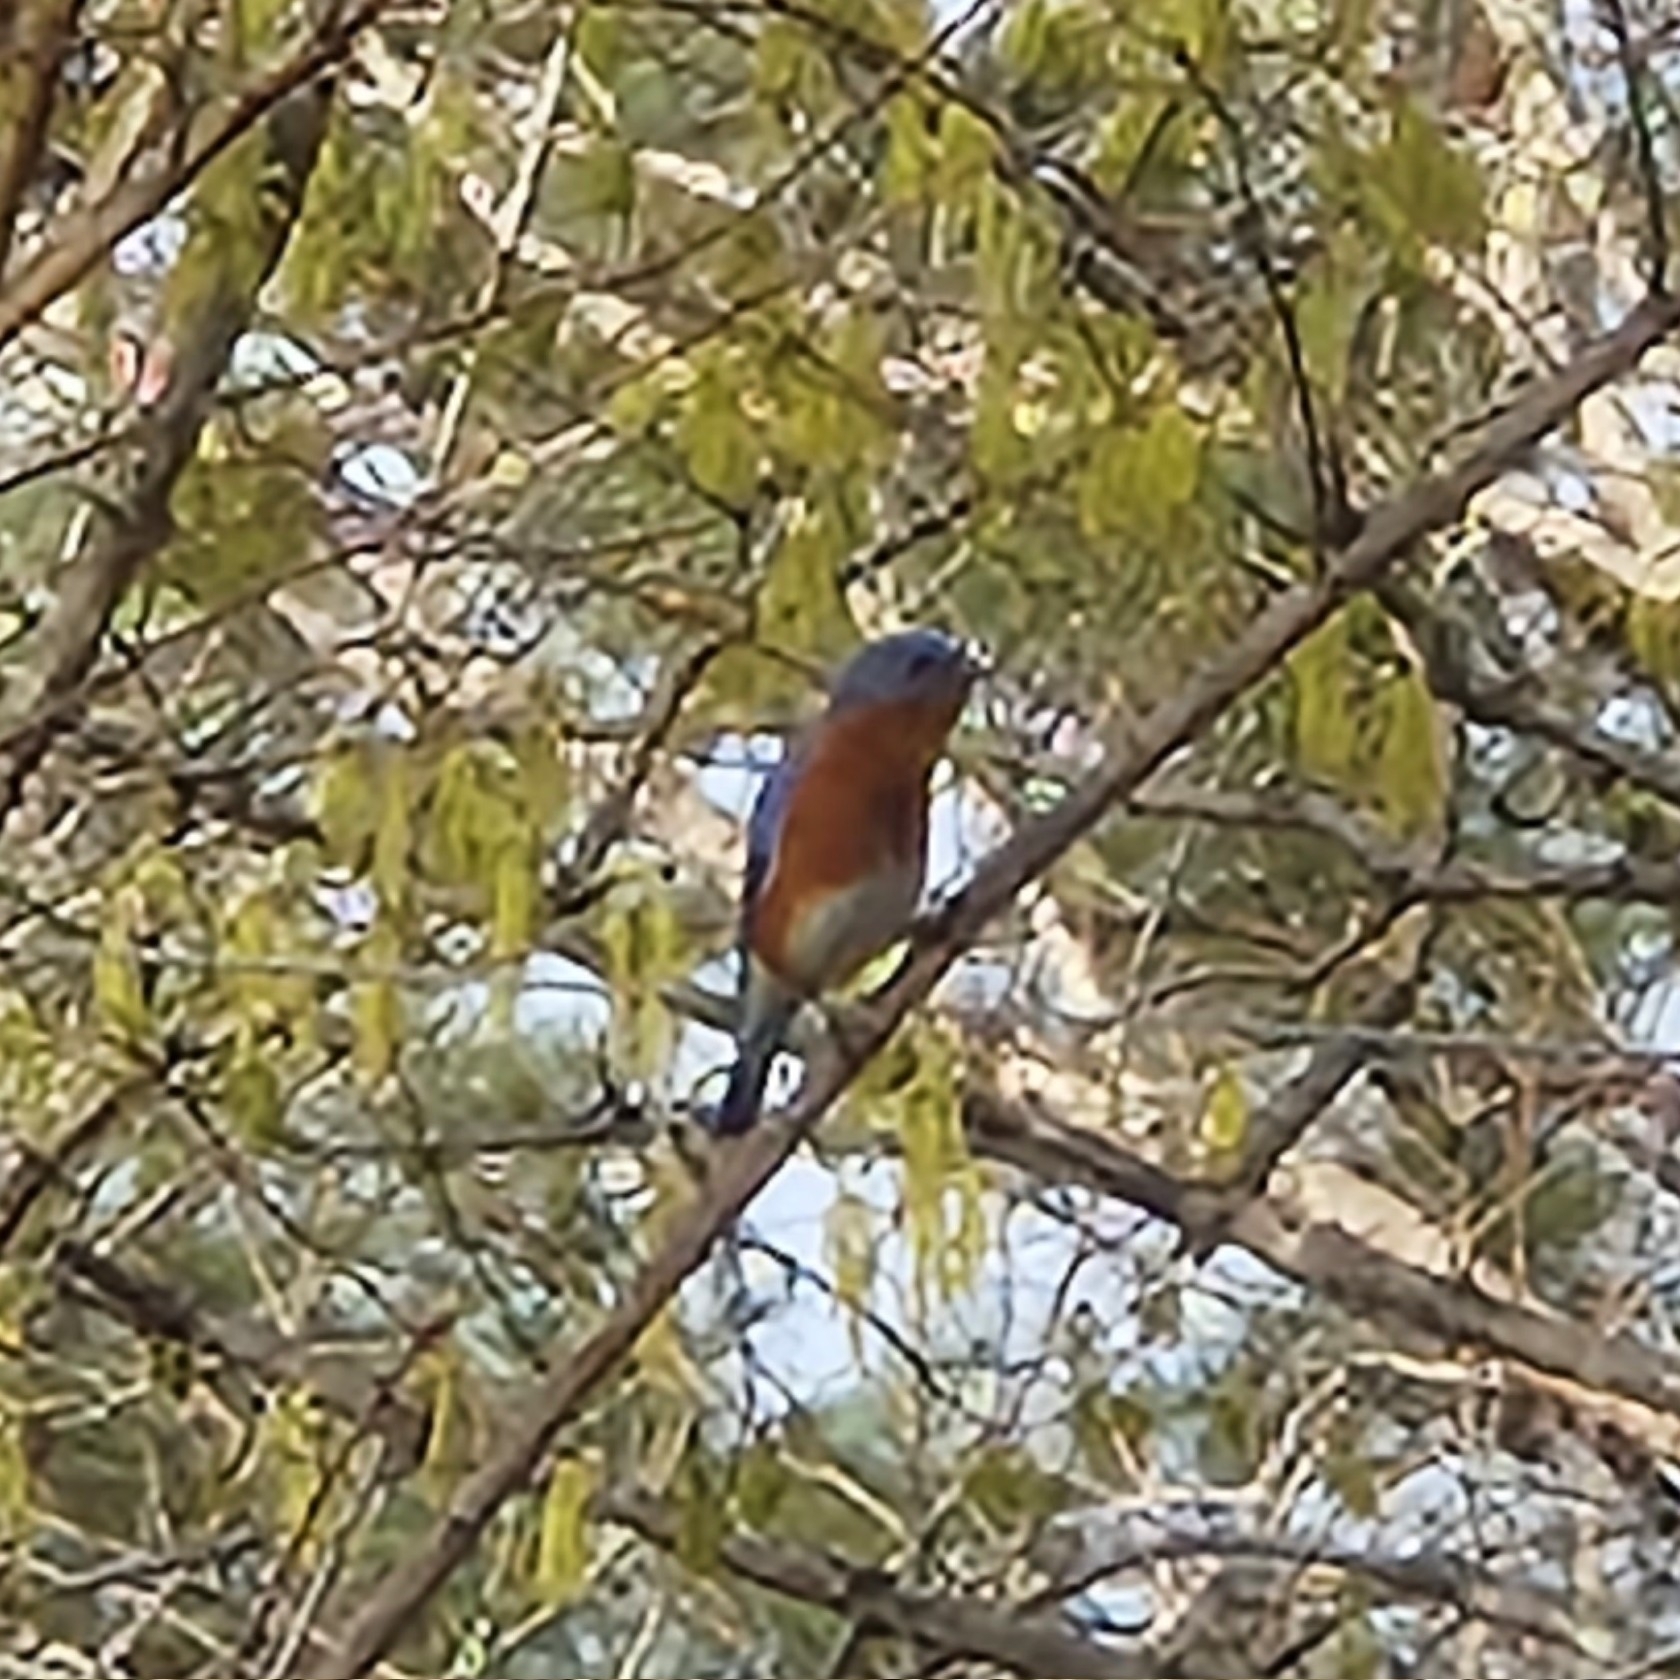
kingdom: Animalia
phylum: Chordata
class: Aves
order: Passeriformes
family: Turdidae
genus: Sialia
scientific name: Sialia sialis
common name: Eastern bluebird
